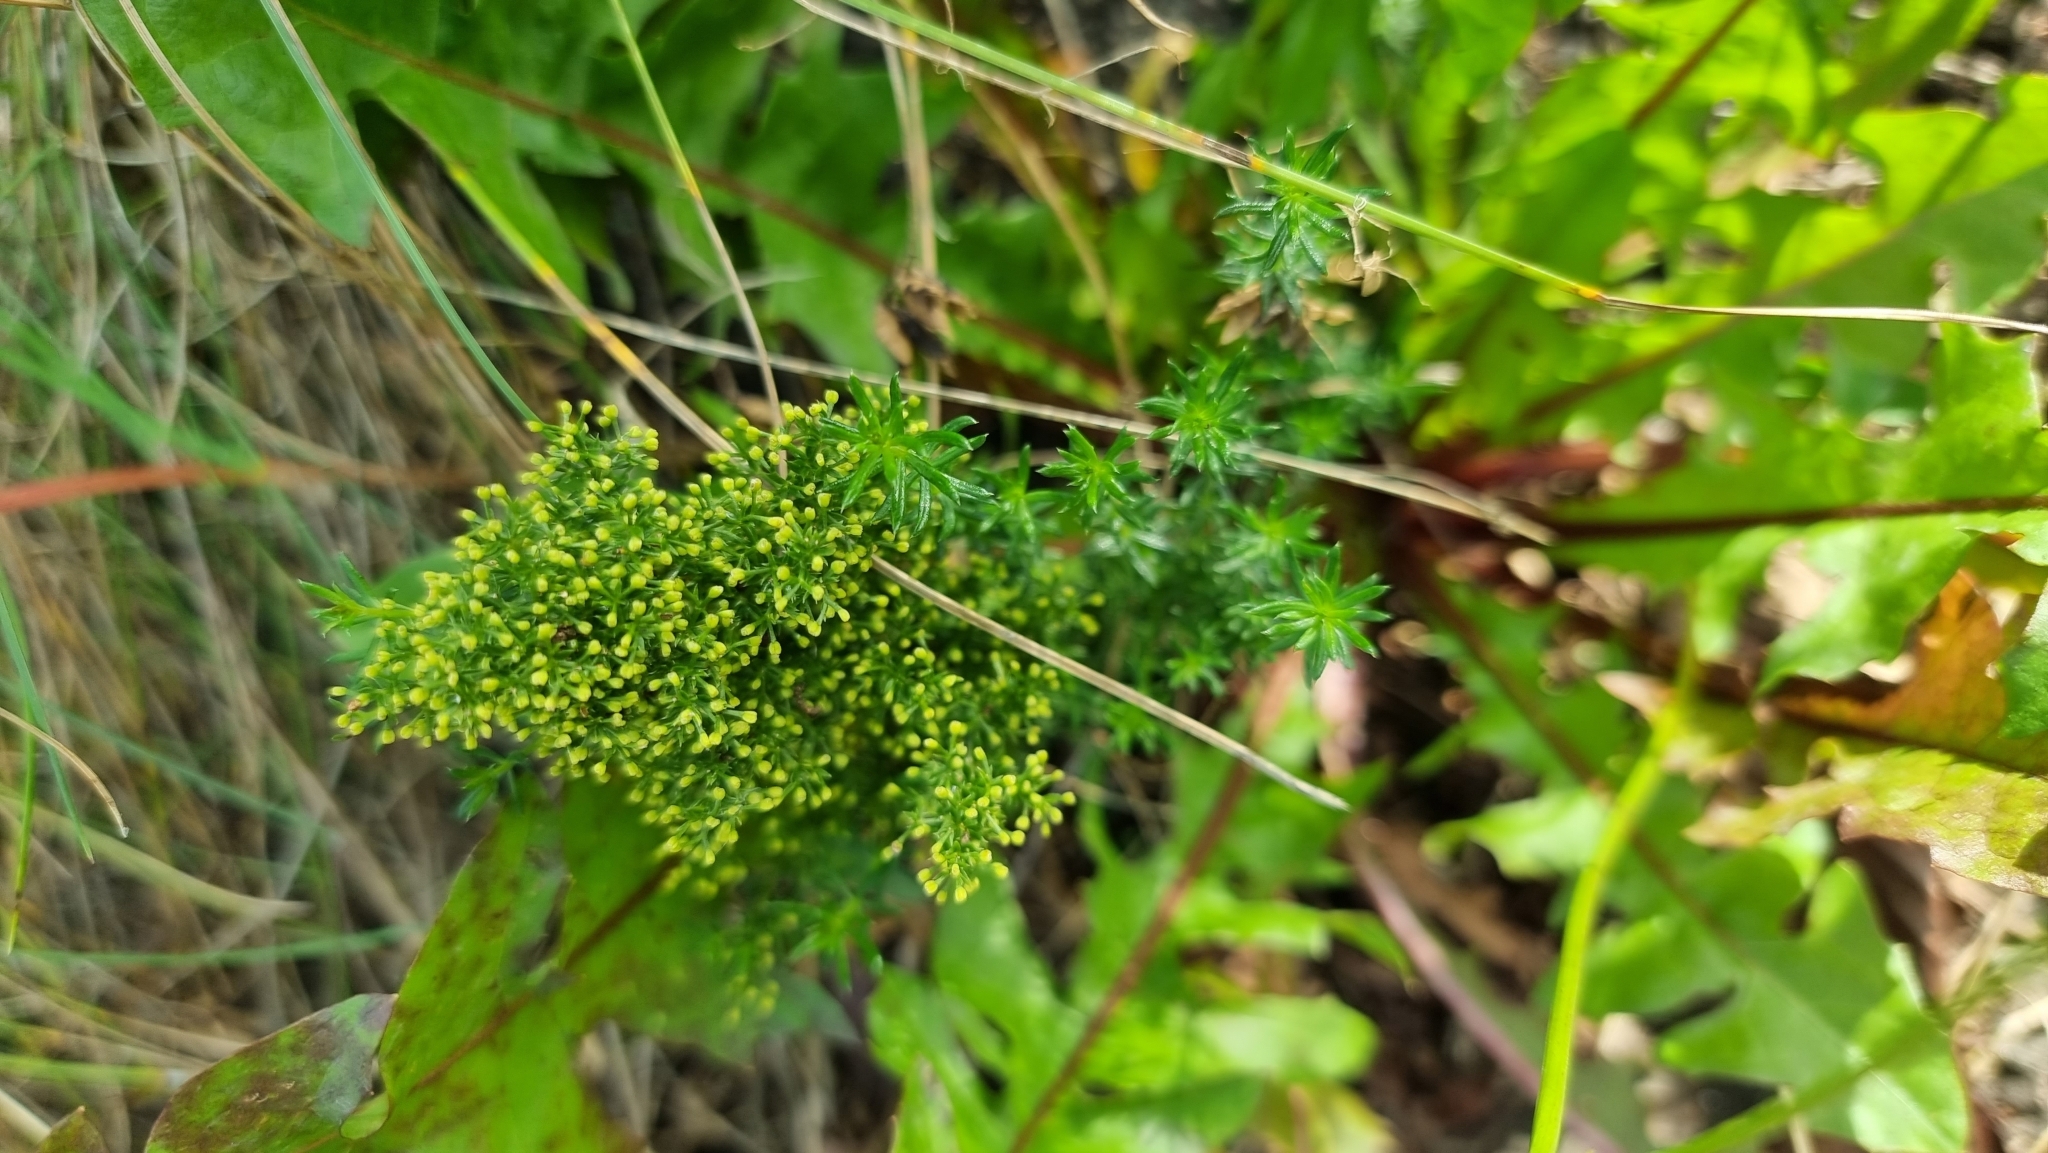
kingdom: Plantae
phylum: Tracheophyta
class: Magnoliopsida
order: Gentianales
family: Rubiaceae
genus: Galium
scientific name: Galium verum
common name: Lady's bedstraw
